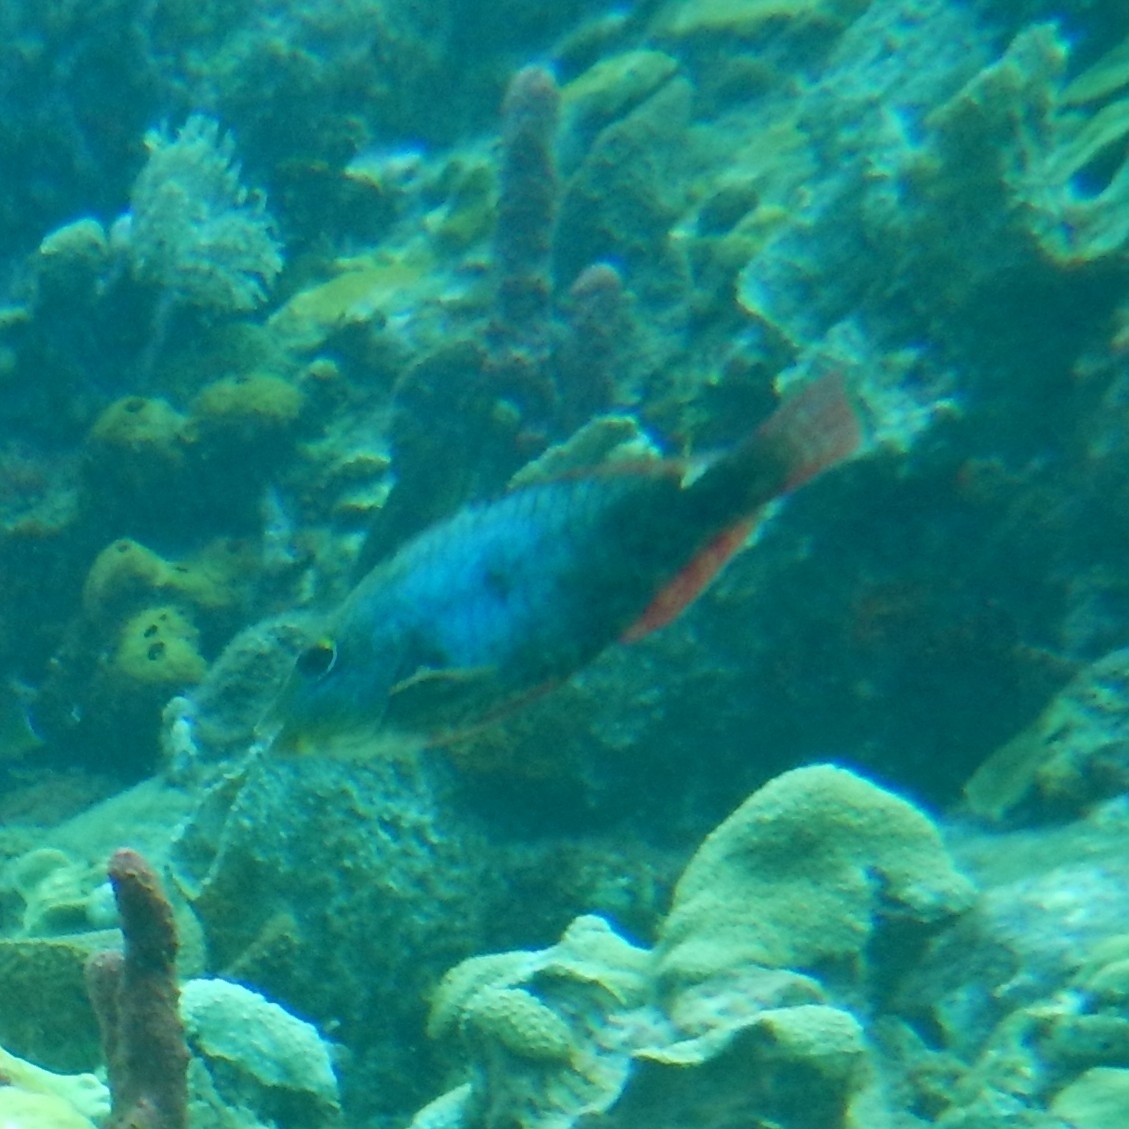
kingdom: Animalia
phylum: Chordata
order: Perciformes
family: Scaridae
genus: Sparisoma
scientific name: Sparisoma aurofrenatum
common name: Redband parrotfish
